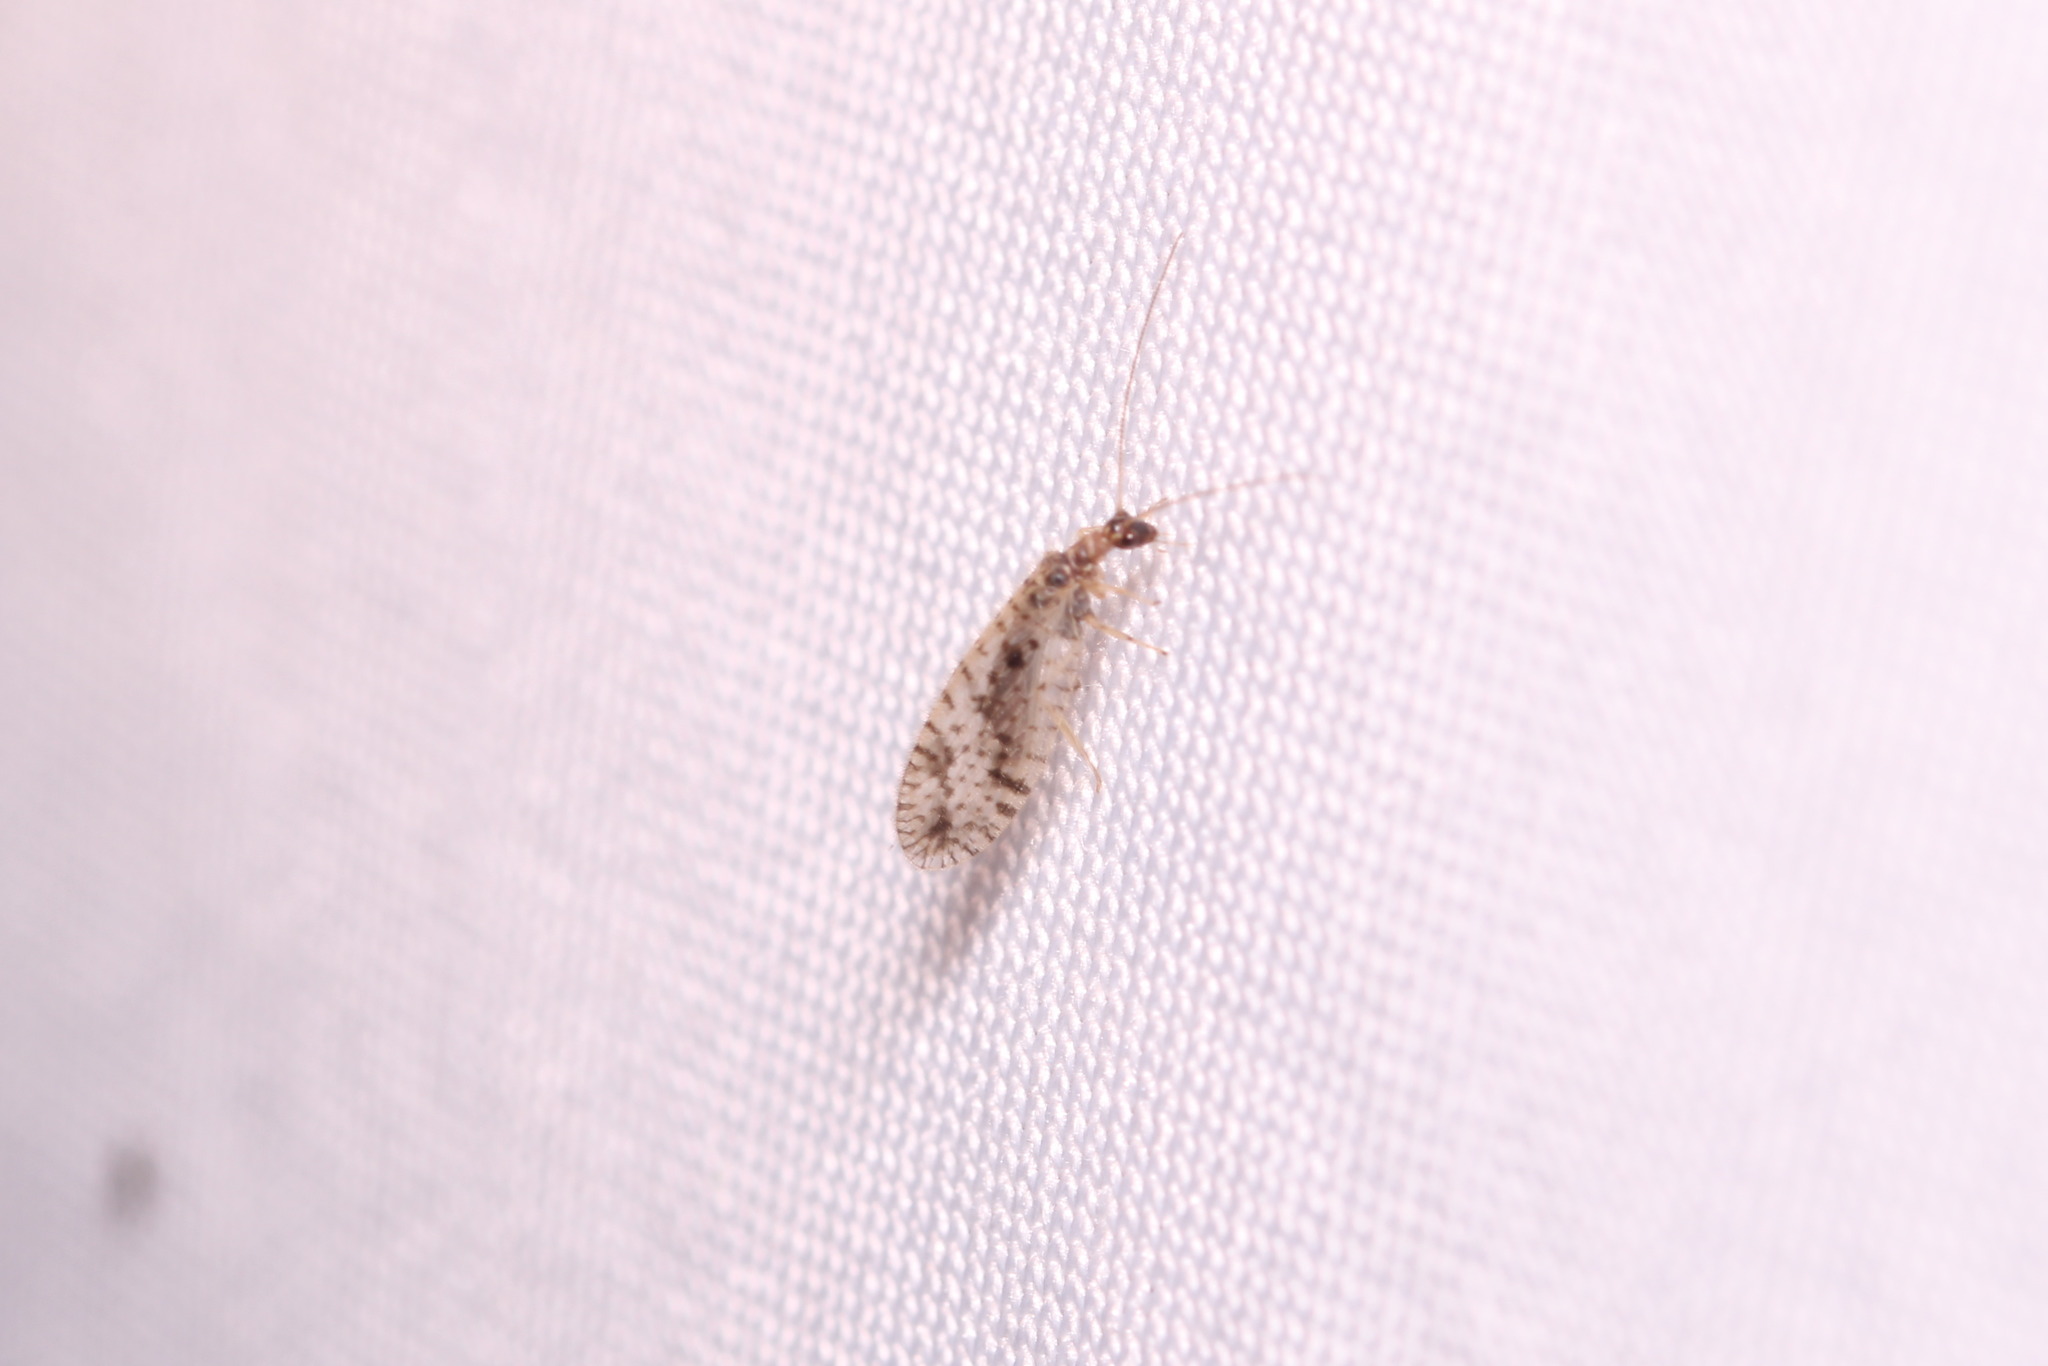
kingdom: Animalia
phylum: Arthropoda
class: Insecta
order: Neuroptera
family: Hemerobiidae
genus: Micromus
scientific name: Micromus variegatus
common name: Brown lacewing
